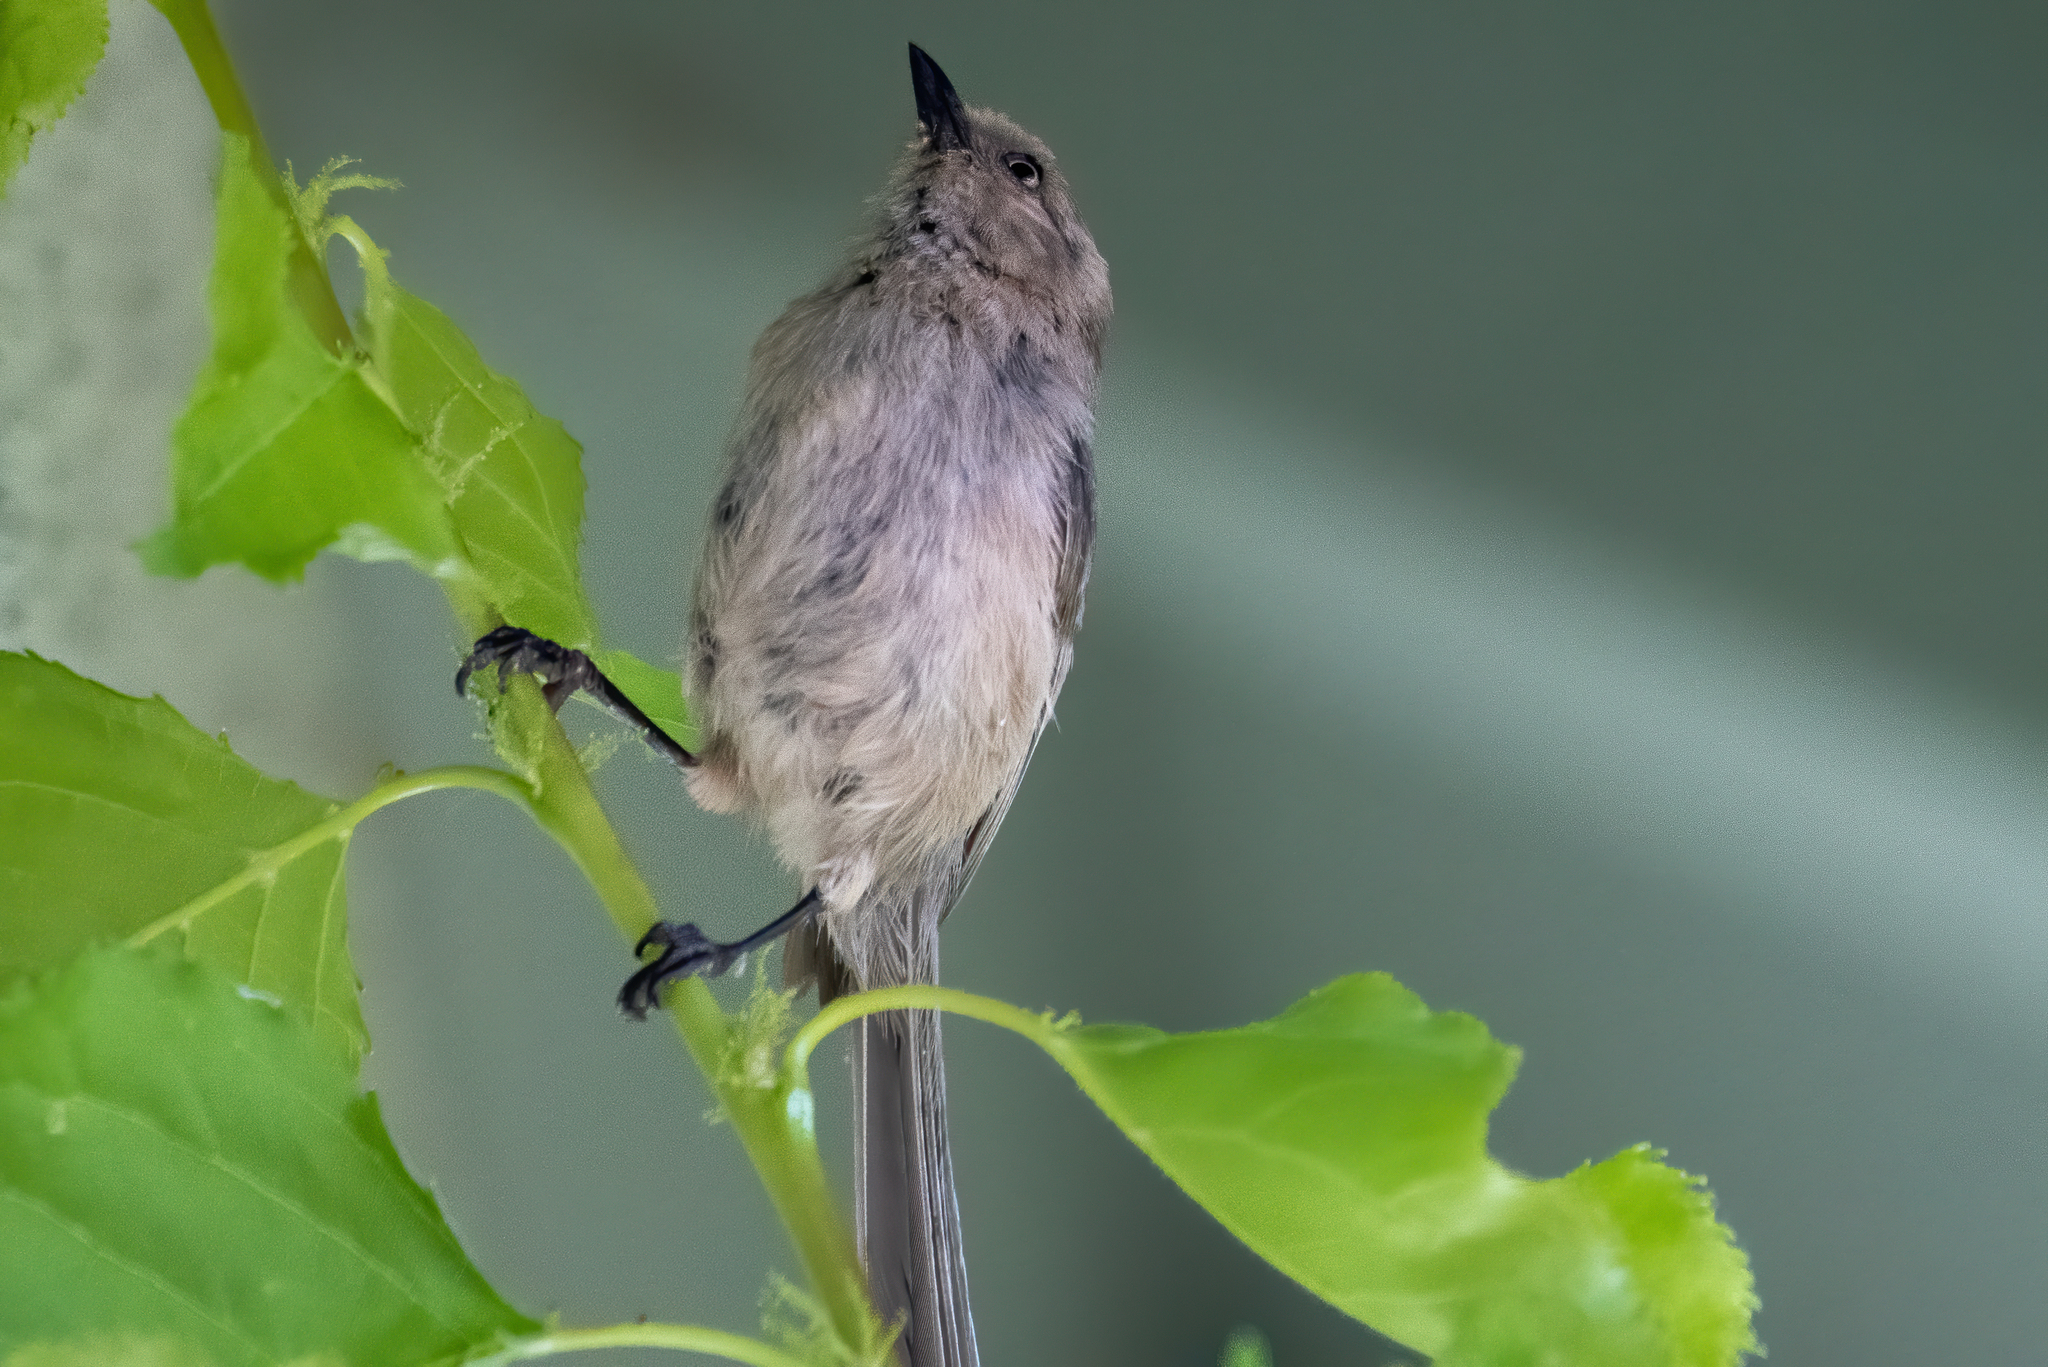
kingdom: Animalia
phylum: Chordata
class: Aves
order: Passeriformes
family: Aegithalidae
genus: Psaltriparus
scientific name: Psaltriparus minimus
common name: American bushtit
